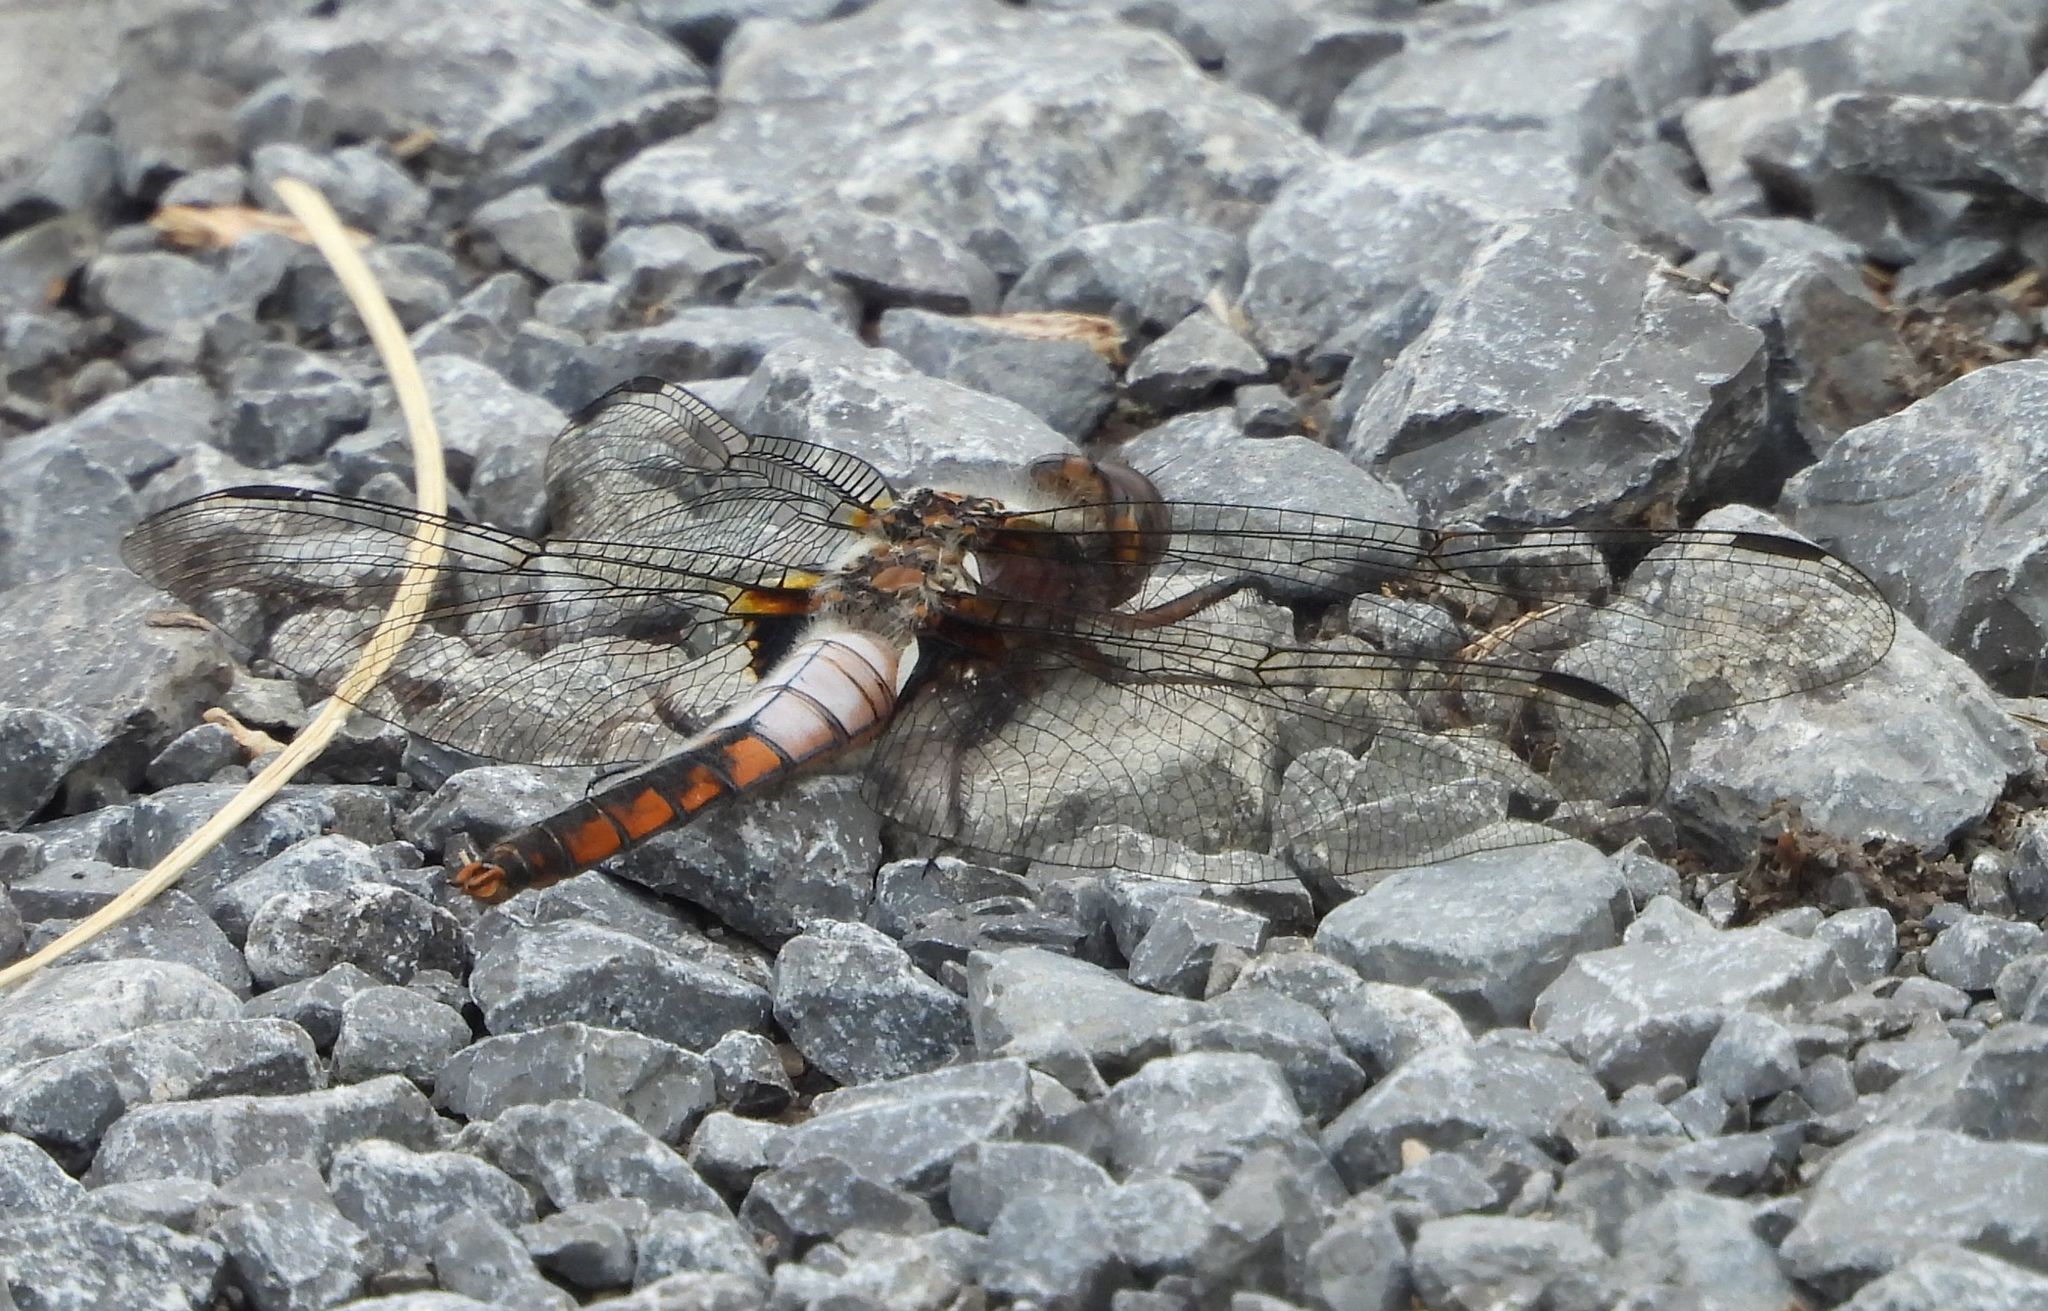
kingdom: Animalia
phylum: Arthropoda
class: Insecta
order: Odonata
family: Libellulidae
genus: Ladona
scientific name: Ladona julia
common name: Chalk-fronted corporal
